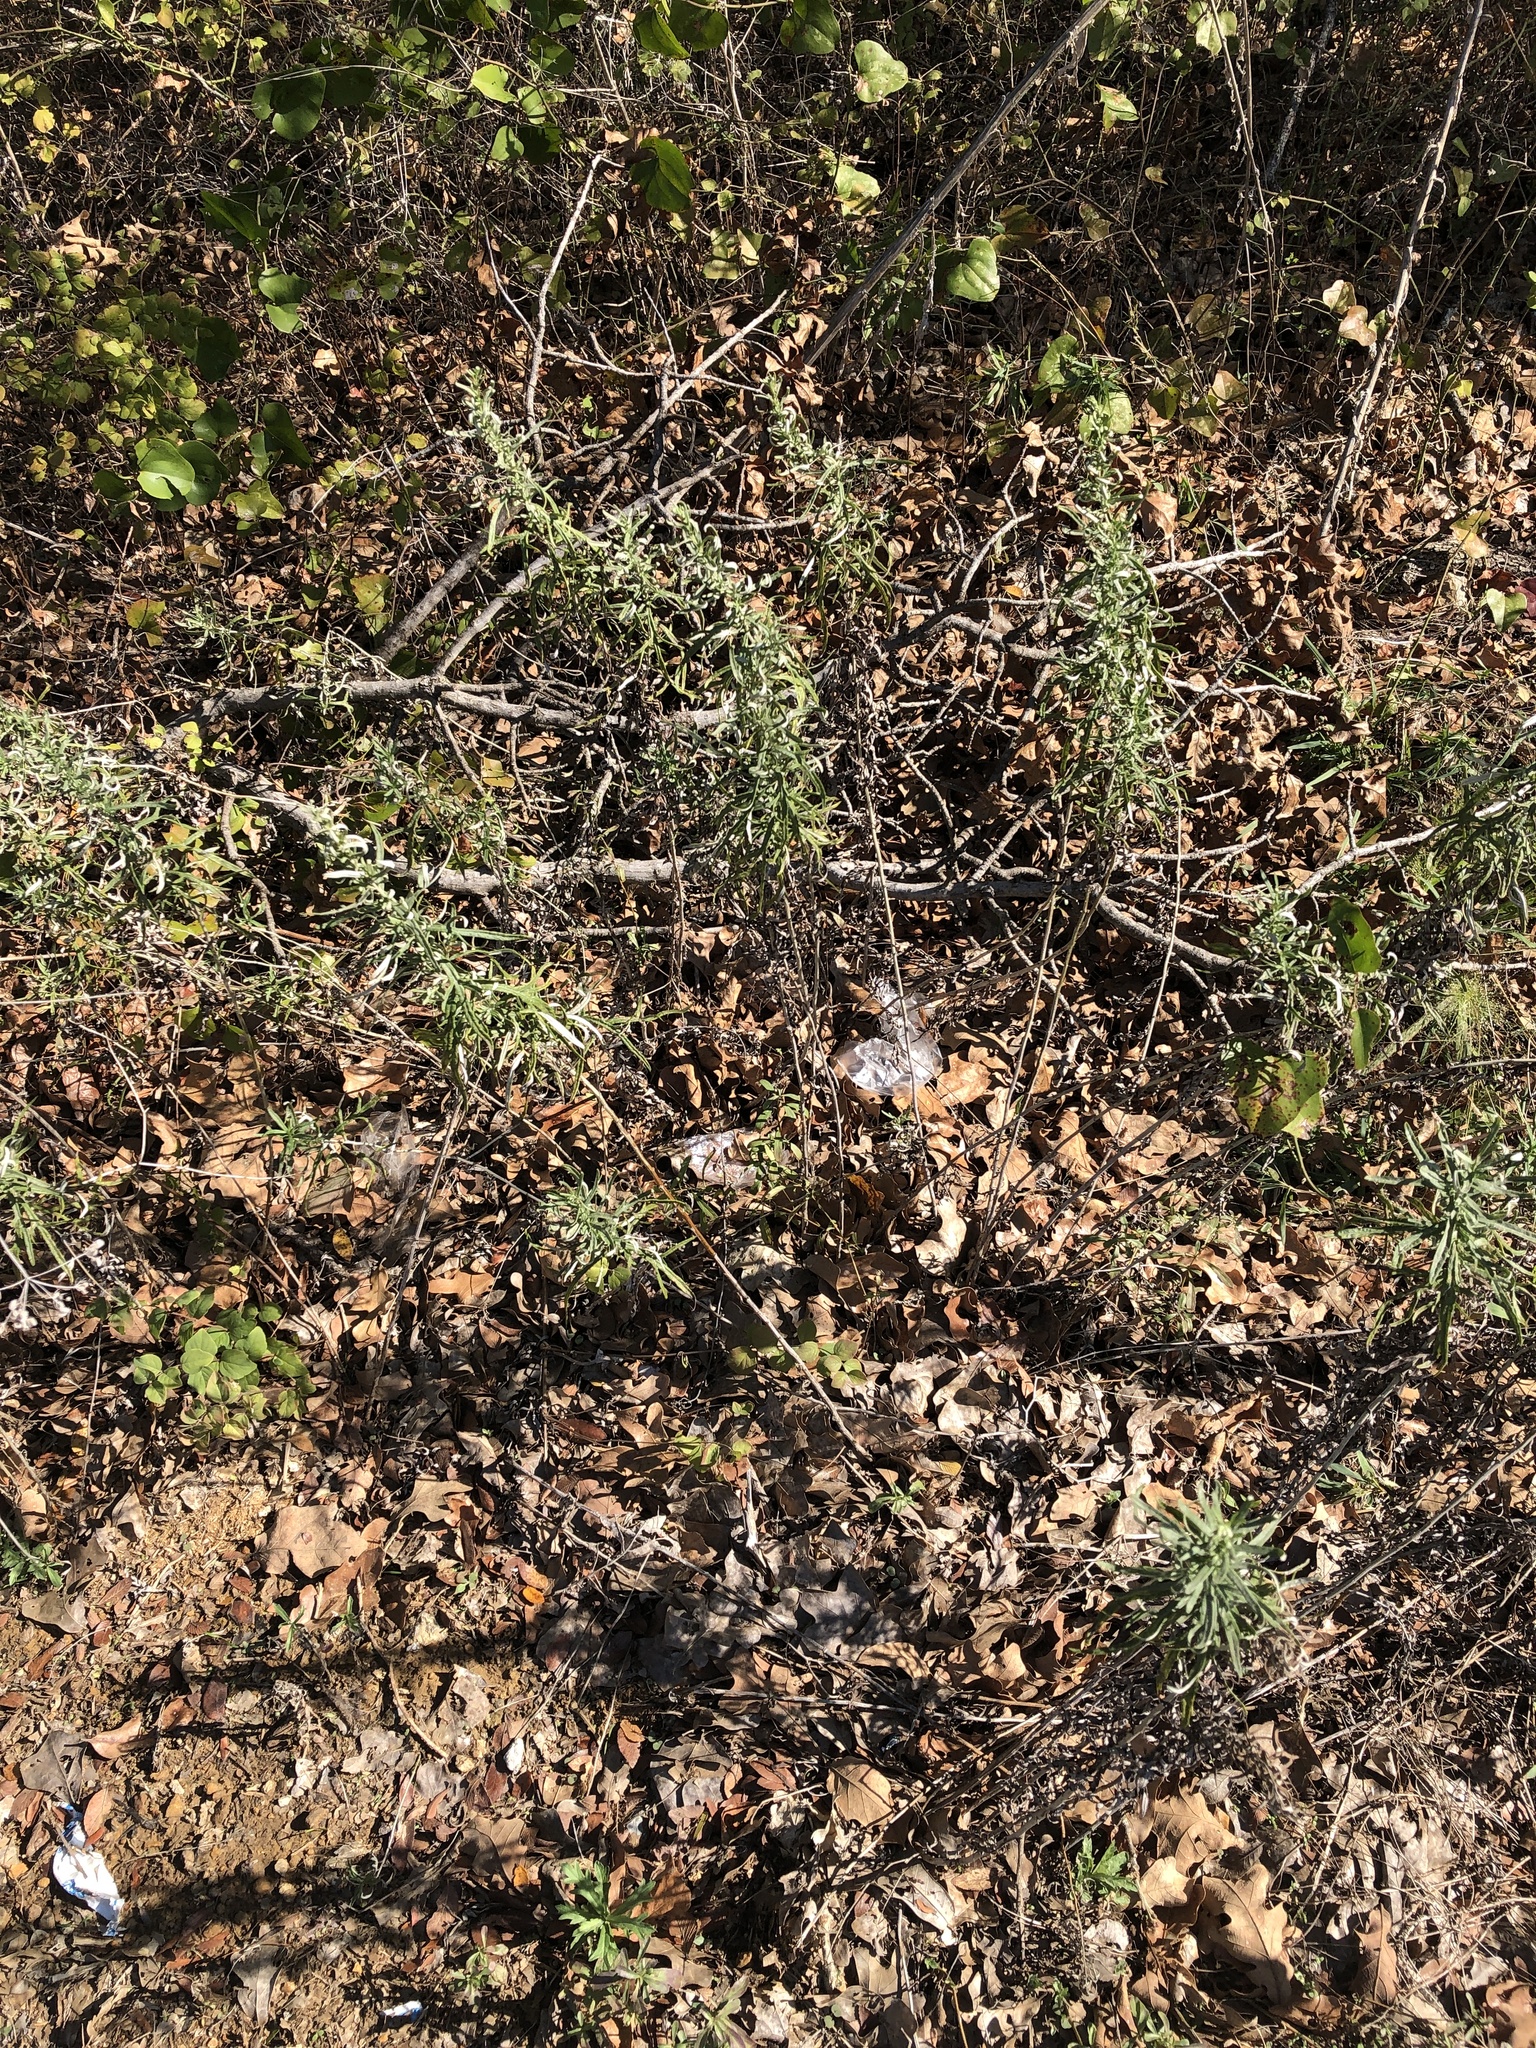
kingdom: Plantae
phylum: Tracheophyta
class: Magnoliopsida
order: Asterales
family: Asteraceae
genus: Artemisia
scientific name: Artemisia ludoviciana
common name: Western mugwort
